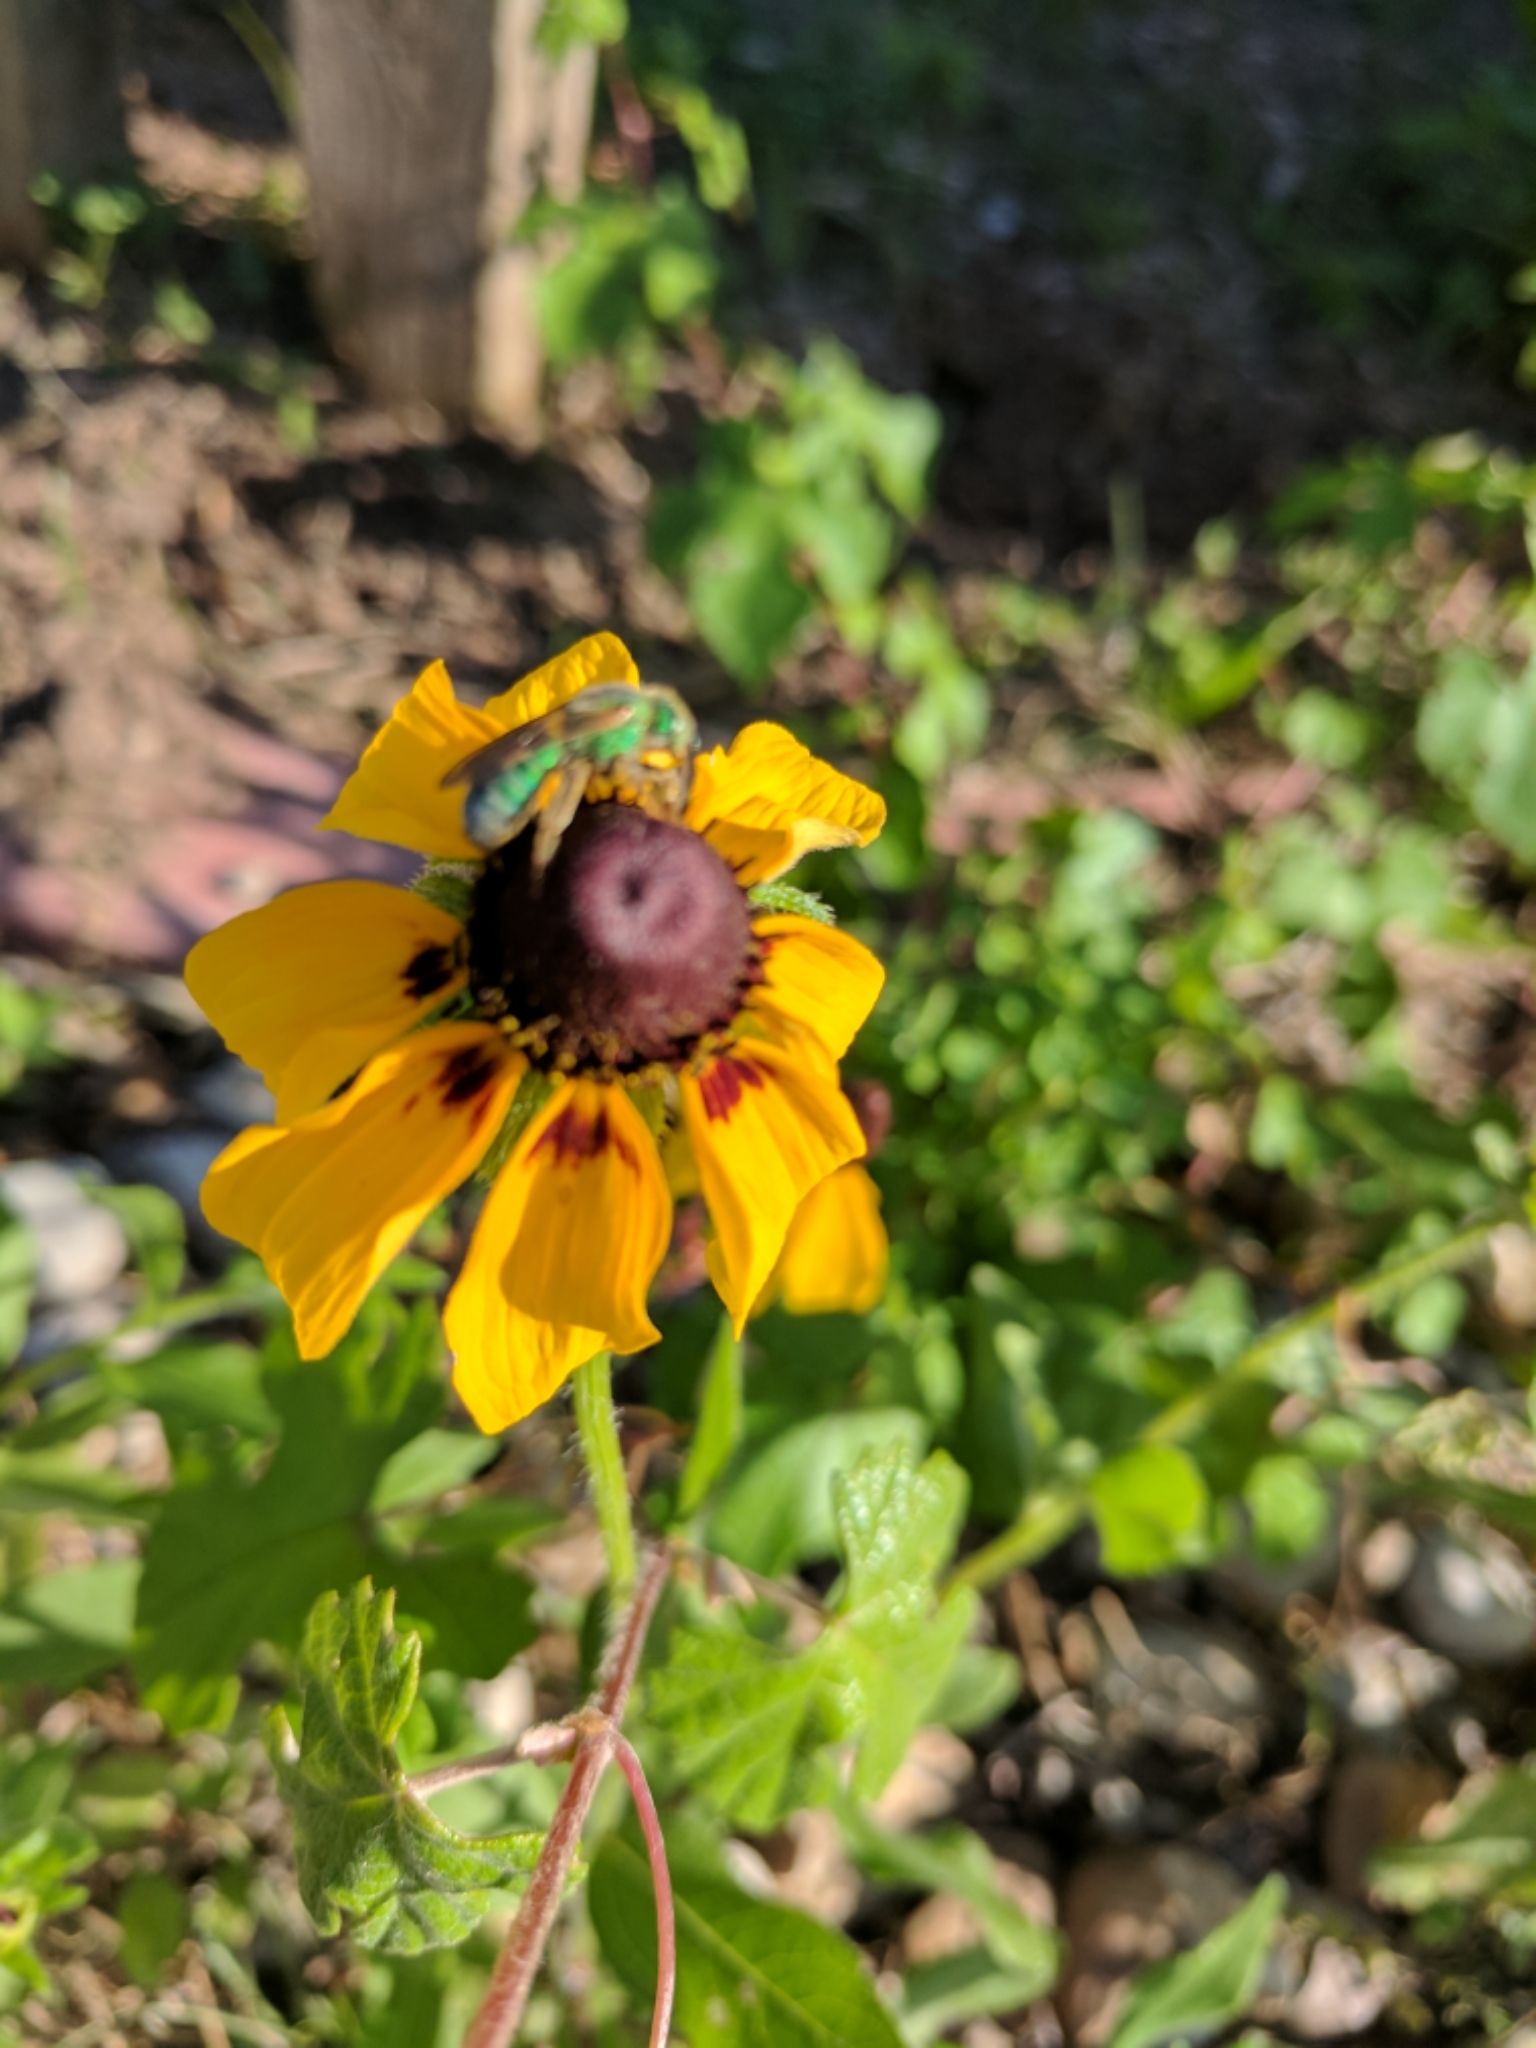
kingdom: Animalia
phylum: Arthropoda
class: Insecta
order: Hymenoptera
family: Halictidae
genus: Agapostemon
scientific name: Agapostemon texanus
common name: Texas striped sweat bee
